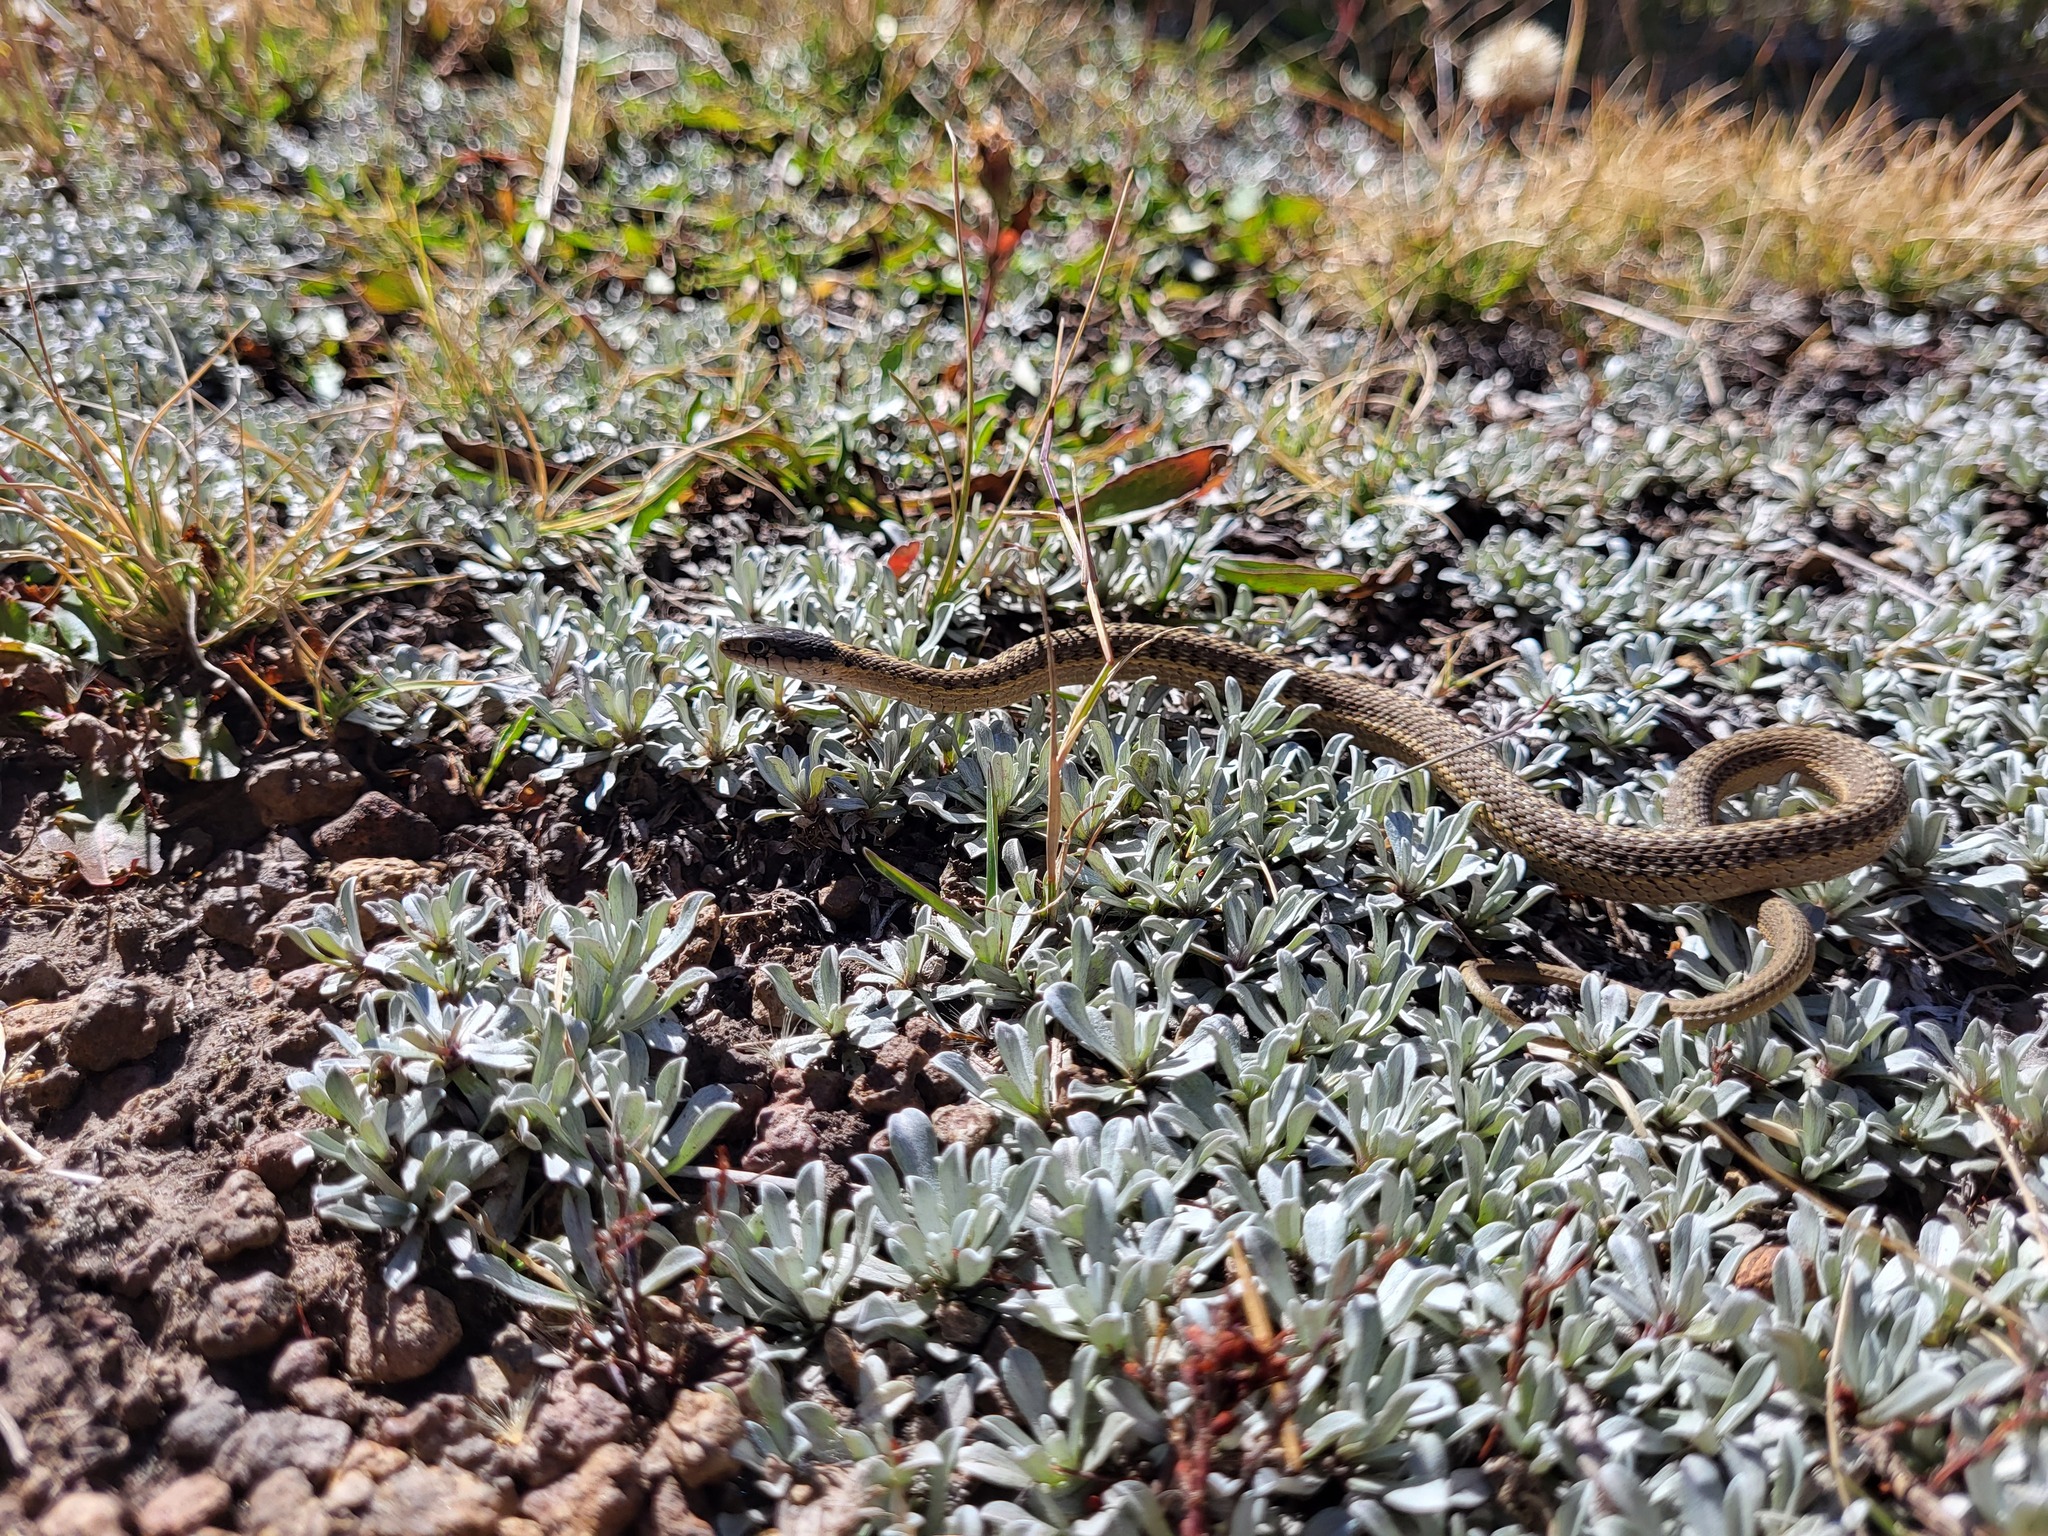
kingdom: Animalia
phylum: Chordata
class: Squamata
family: Colubridae
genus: Thamnophis
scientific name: Thamnophis elegans
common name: Western terrestrial garter snake
